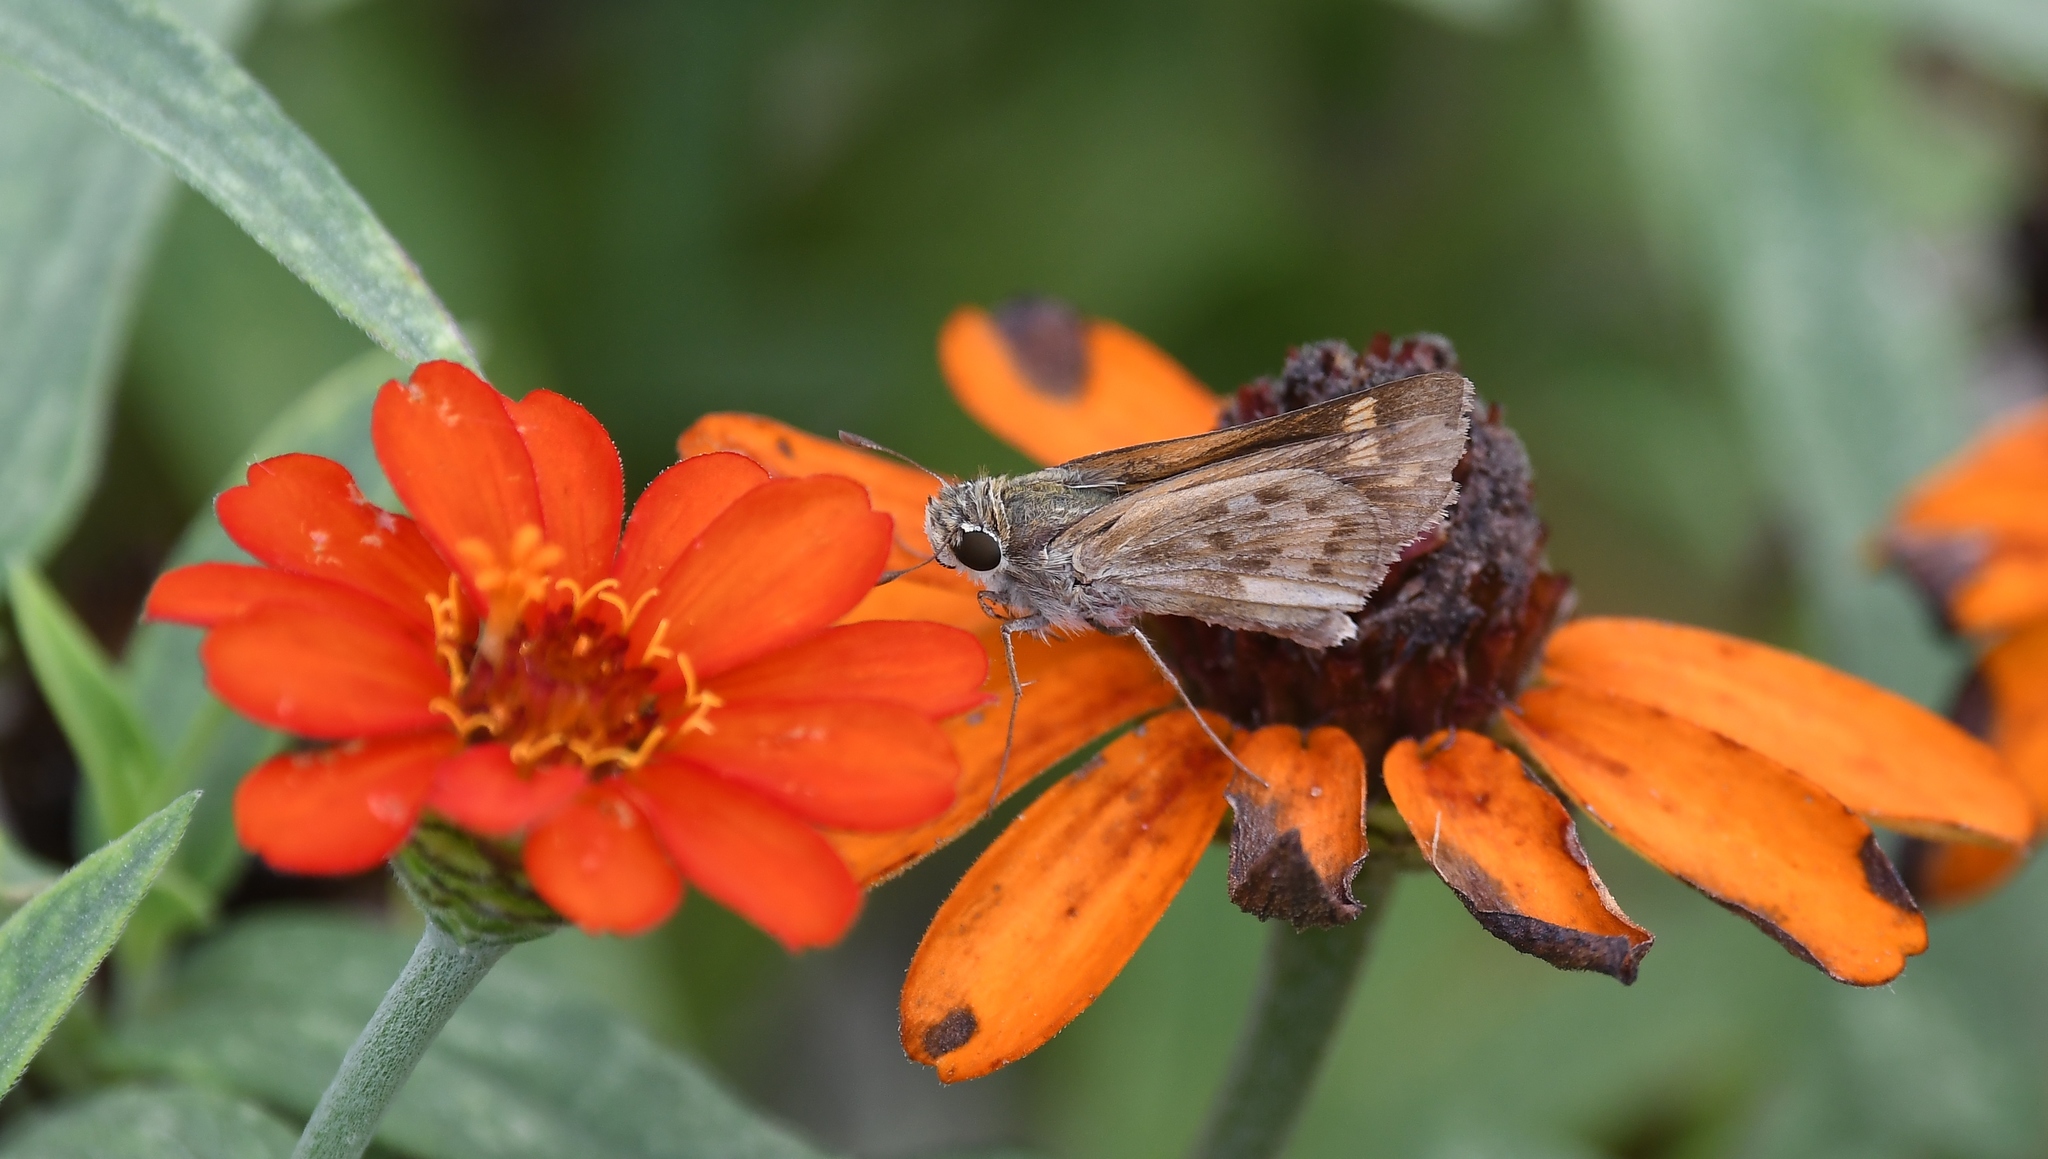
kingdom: Animalia
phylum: Arthropoda
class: Insecta
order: Lepidoptera
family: Hesperiidae
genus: Atalopedes
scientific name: Atalopedes
